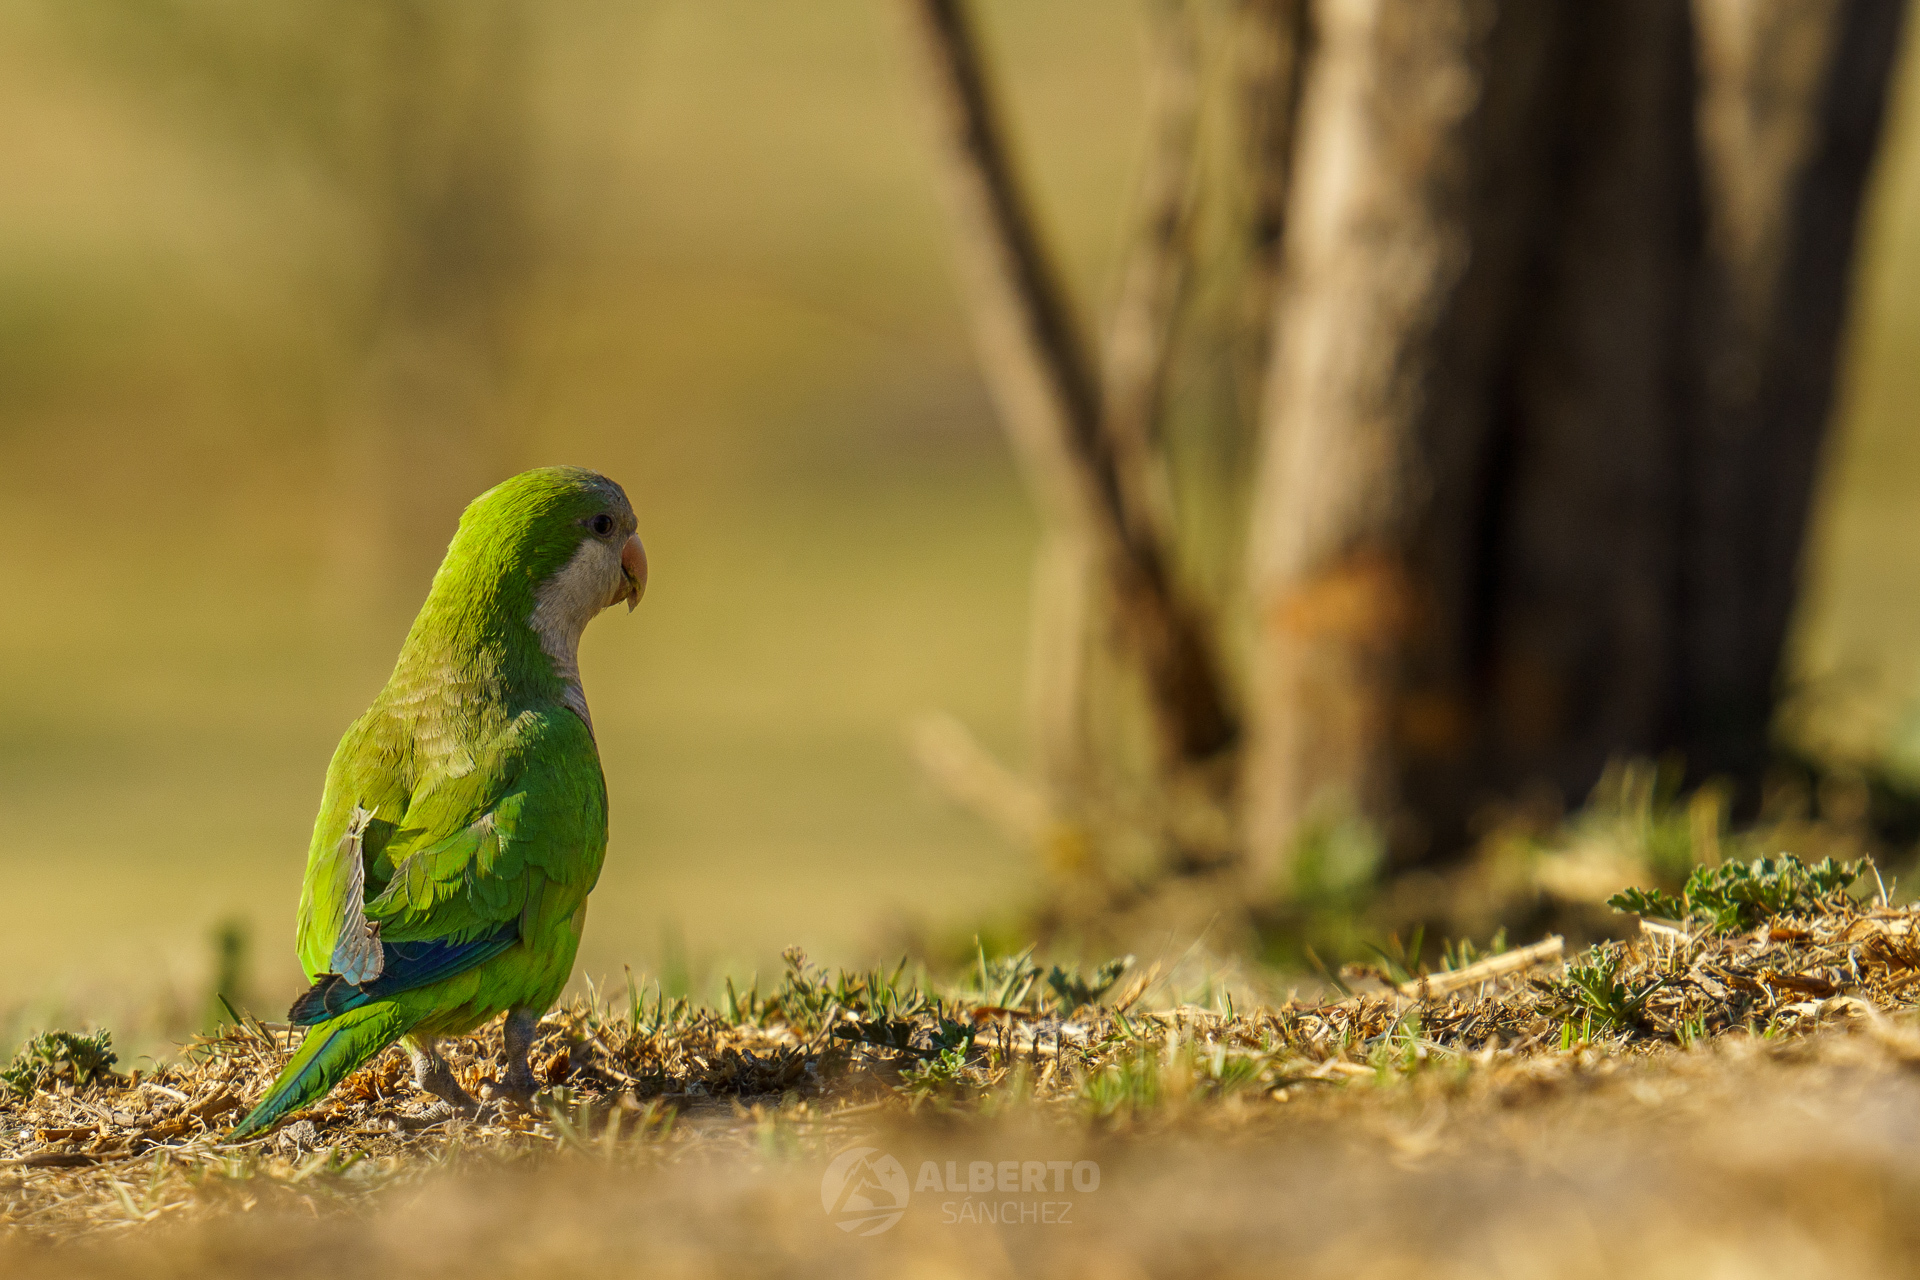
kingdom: Animalia
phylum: Chordata
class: Aves
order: Psittaciformes
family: Psittacidae
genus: Myiopsitta
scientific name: Myiopsitta monachus
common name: Monk parakeet
